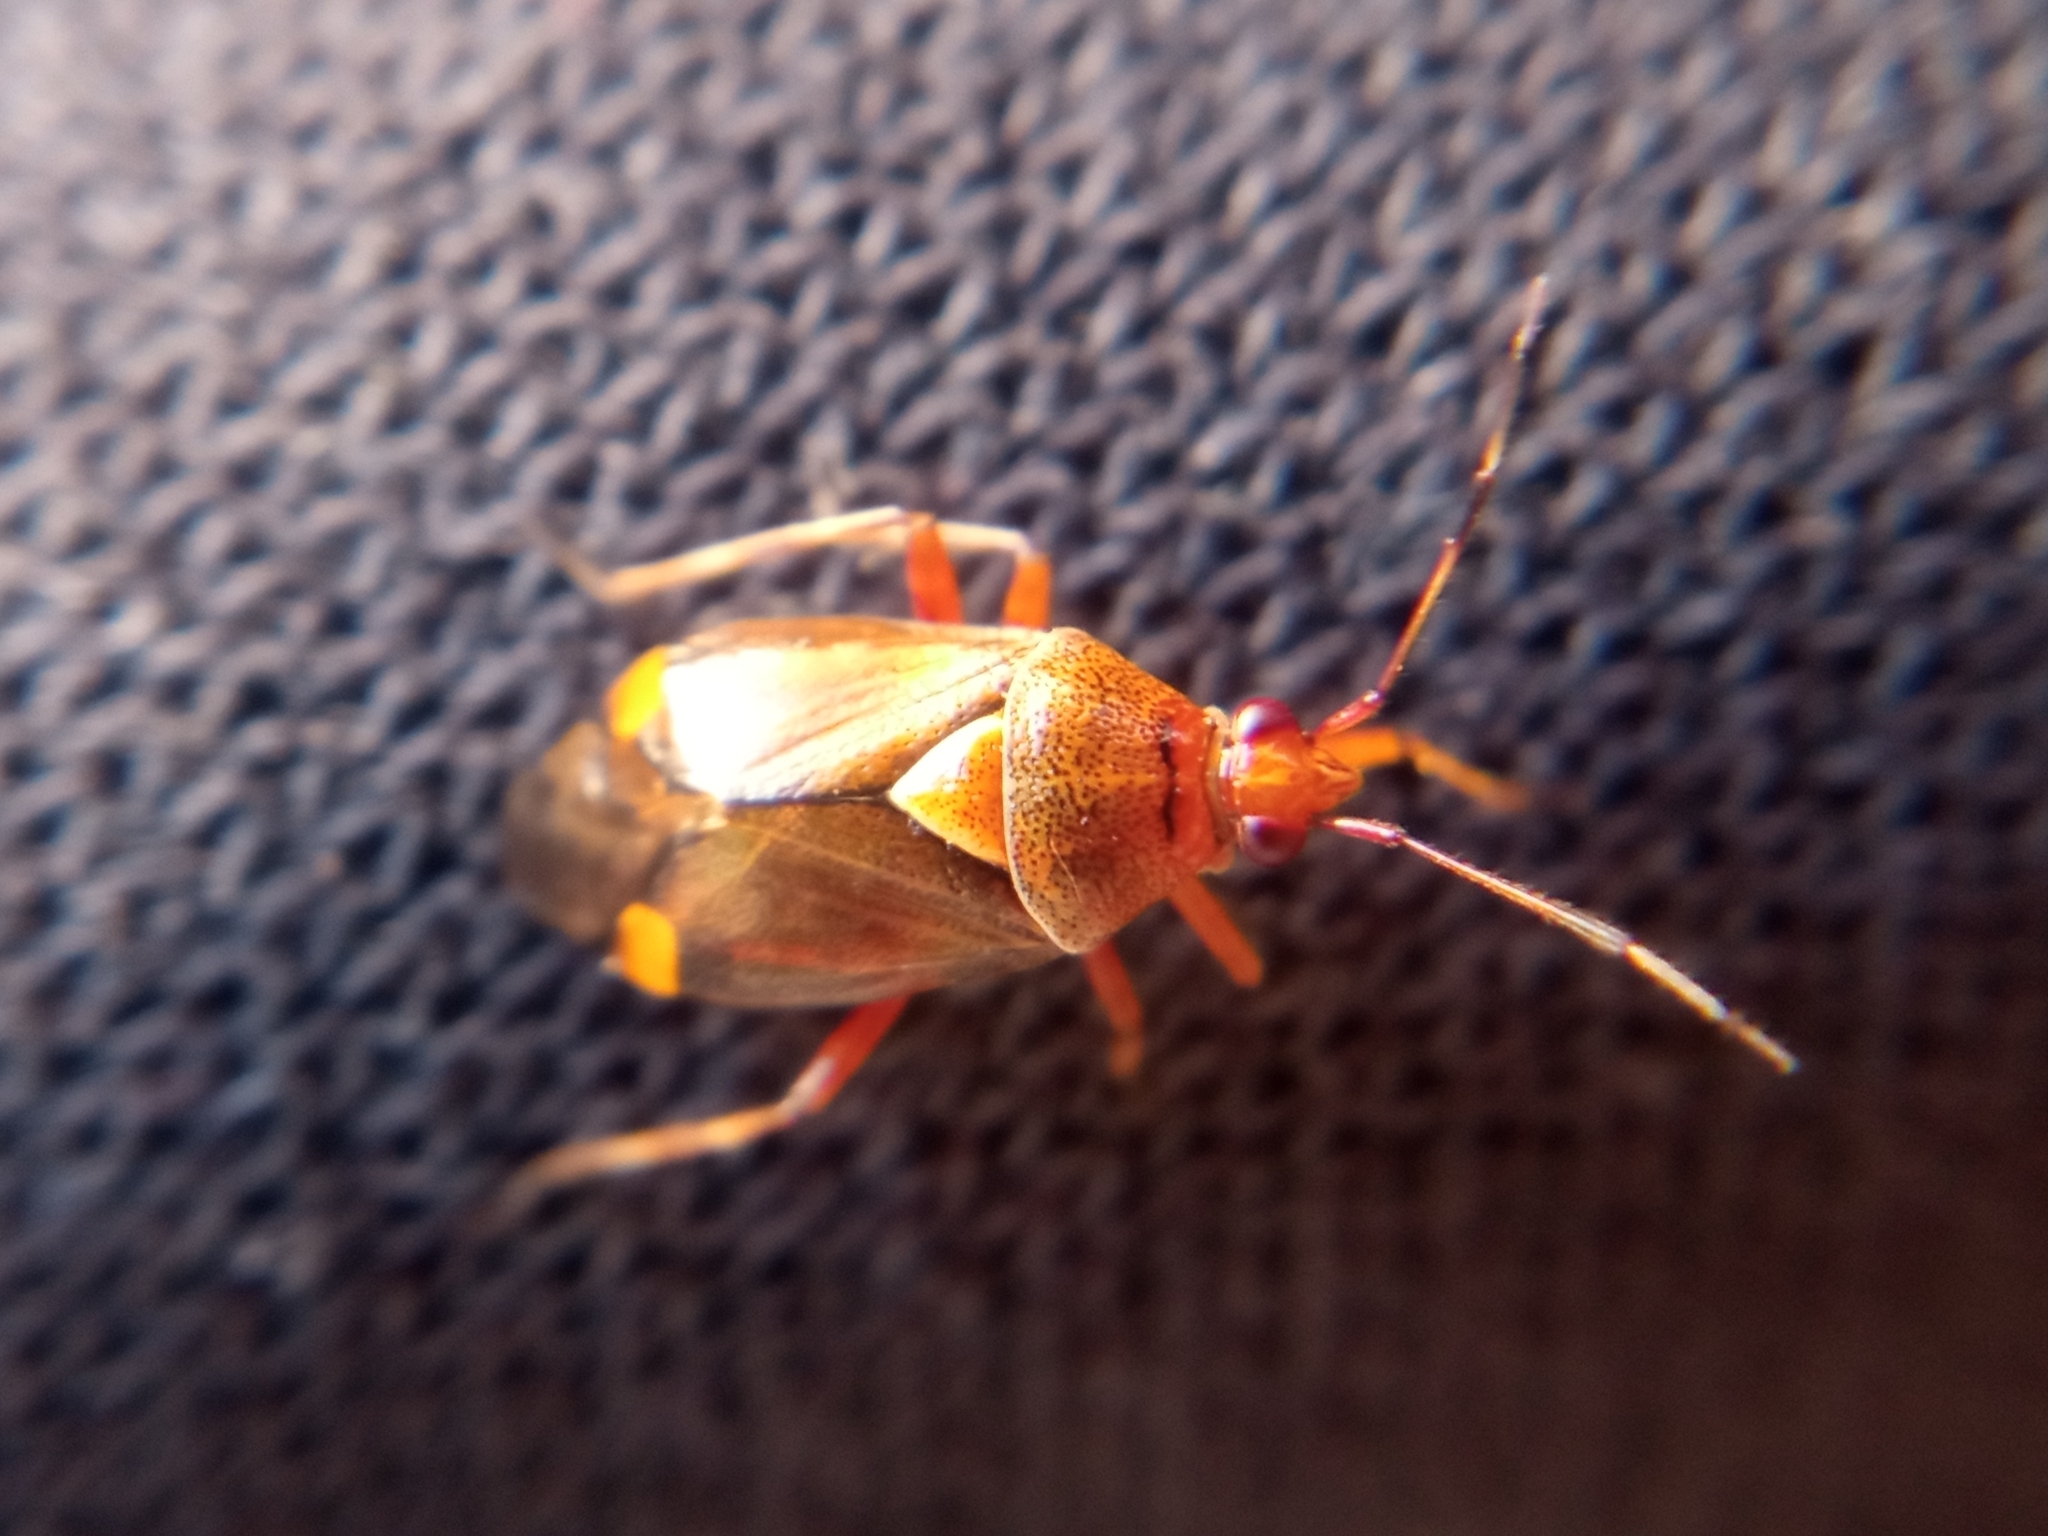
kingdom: Animalia
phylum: Arthropoda
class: Insecta
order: Hemiptera
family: Miridae
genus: Deraeocoris
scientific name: Deraeocoris flavilinea
